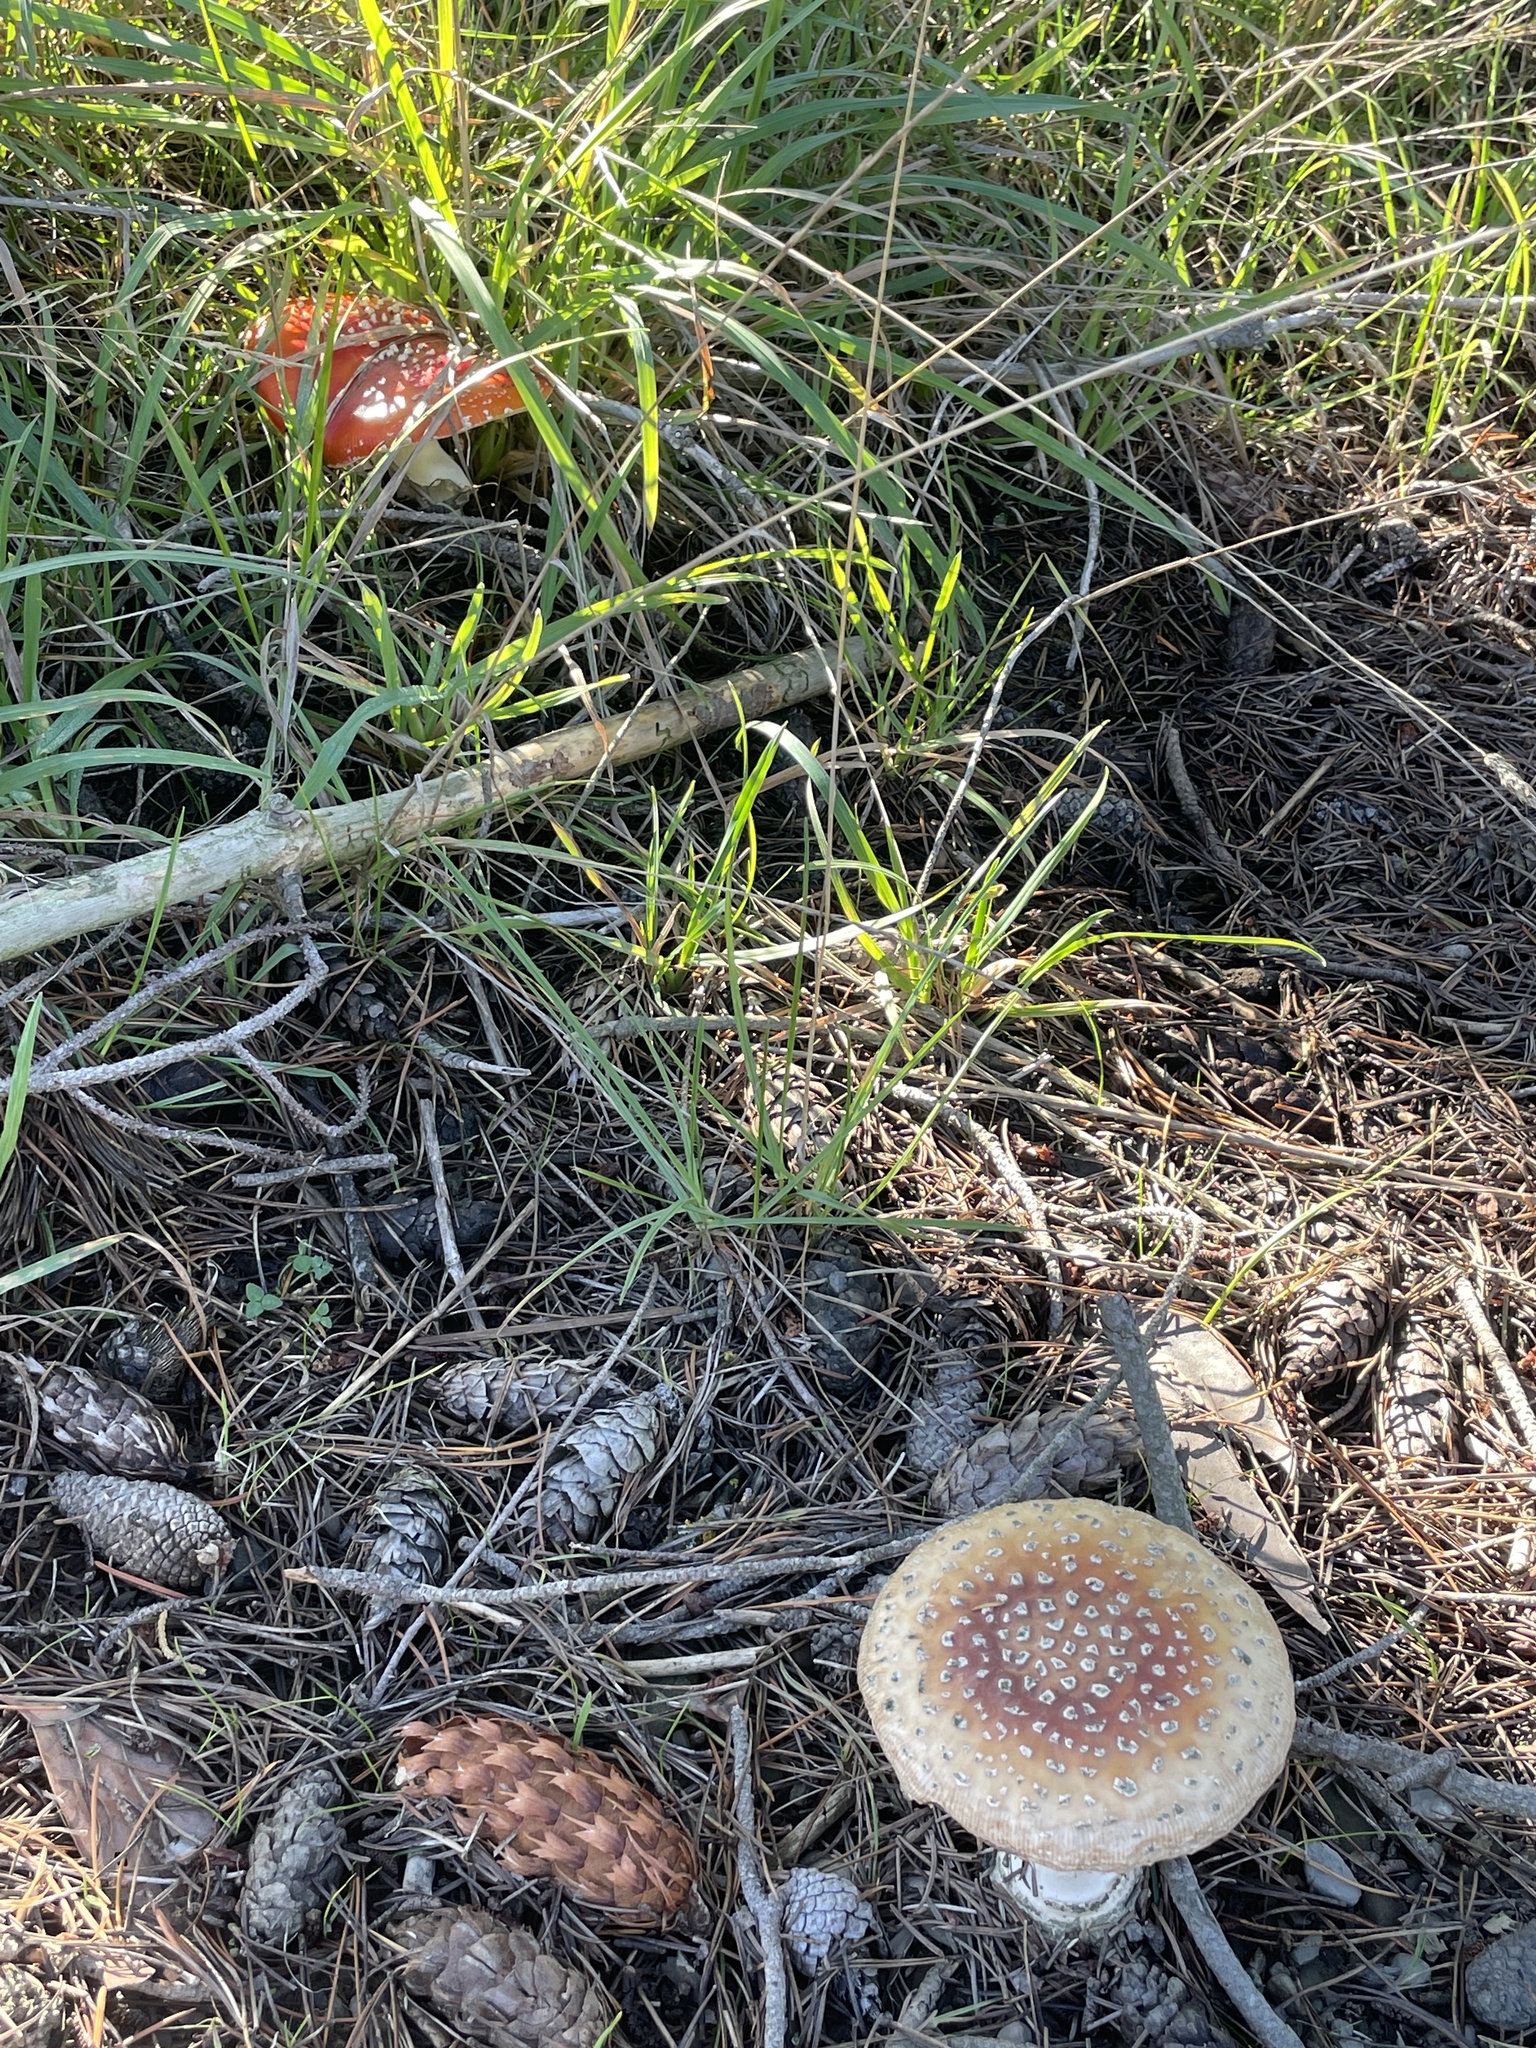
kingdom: Fungi
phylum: Basidiomycota
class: Agaricomycetes
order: Agaricales
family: Amanitaceae
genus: Amanita
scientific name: Amanita muscaria
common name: Fly agaric
